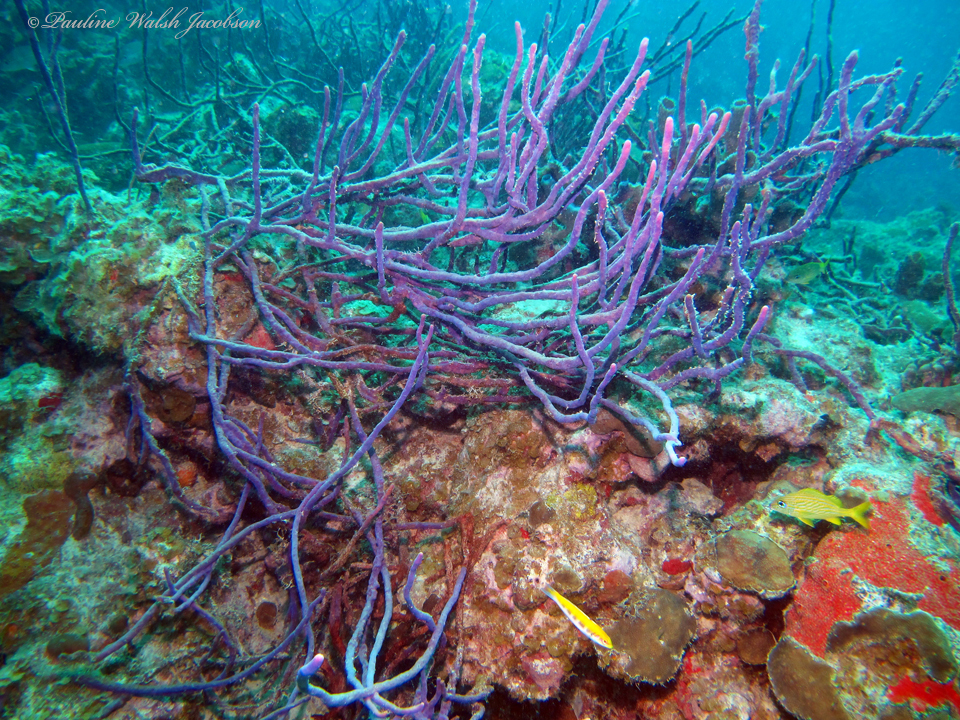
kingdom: Animalia
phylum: Porifera
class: Demospongiae
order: Verongiida
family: Aplysinidae
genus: Aplysina
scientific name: Aplysina cauliformis
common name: Branching candle sponge
